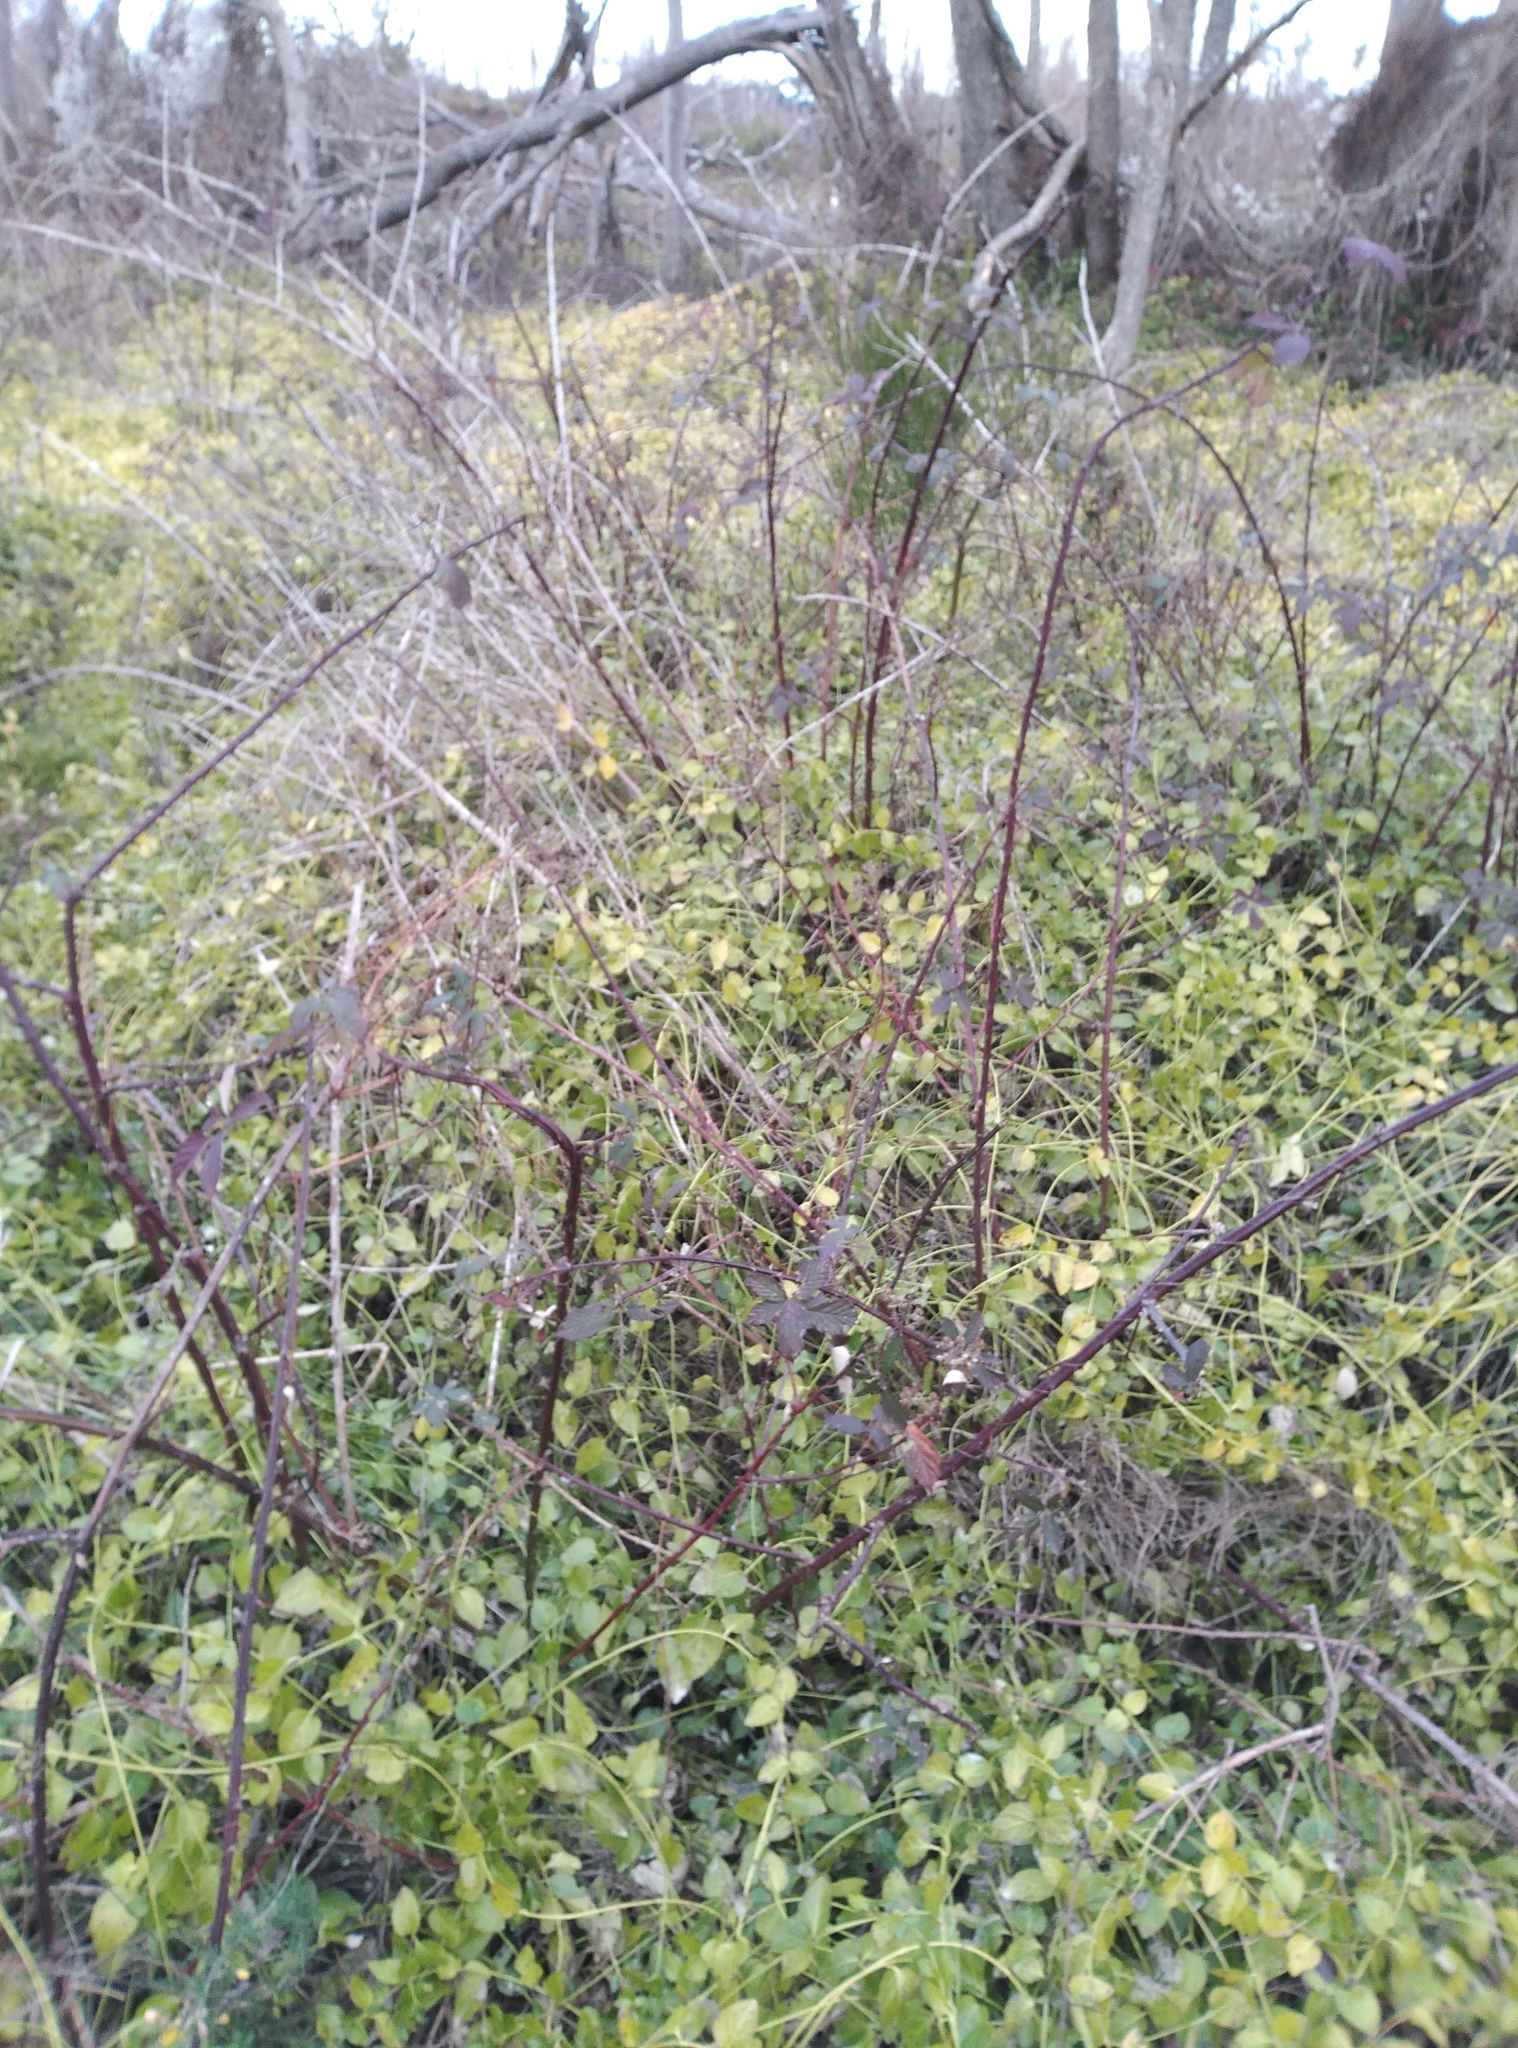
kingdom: Plantae
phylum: Tracheophyta
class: Magnoliopsida
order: Gentianales
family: Apocynaceae
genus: Vinca
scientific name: Vinca major
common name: Greater periwinkle
